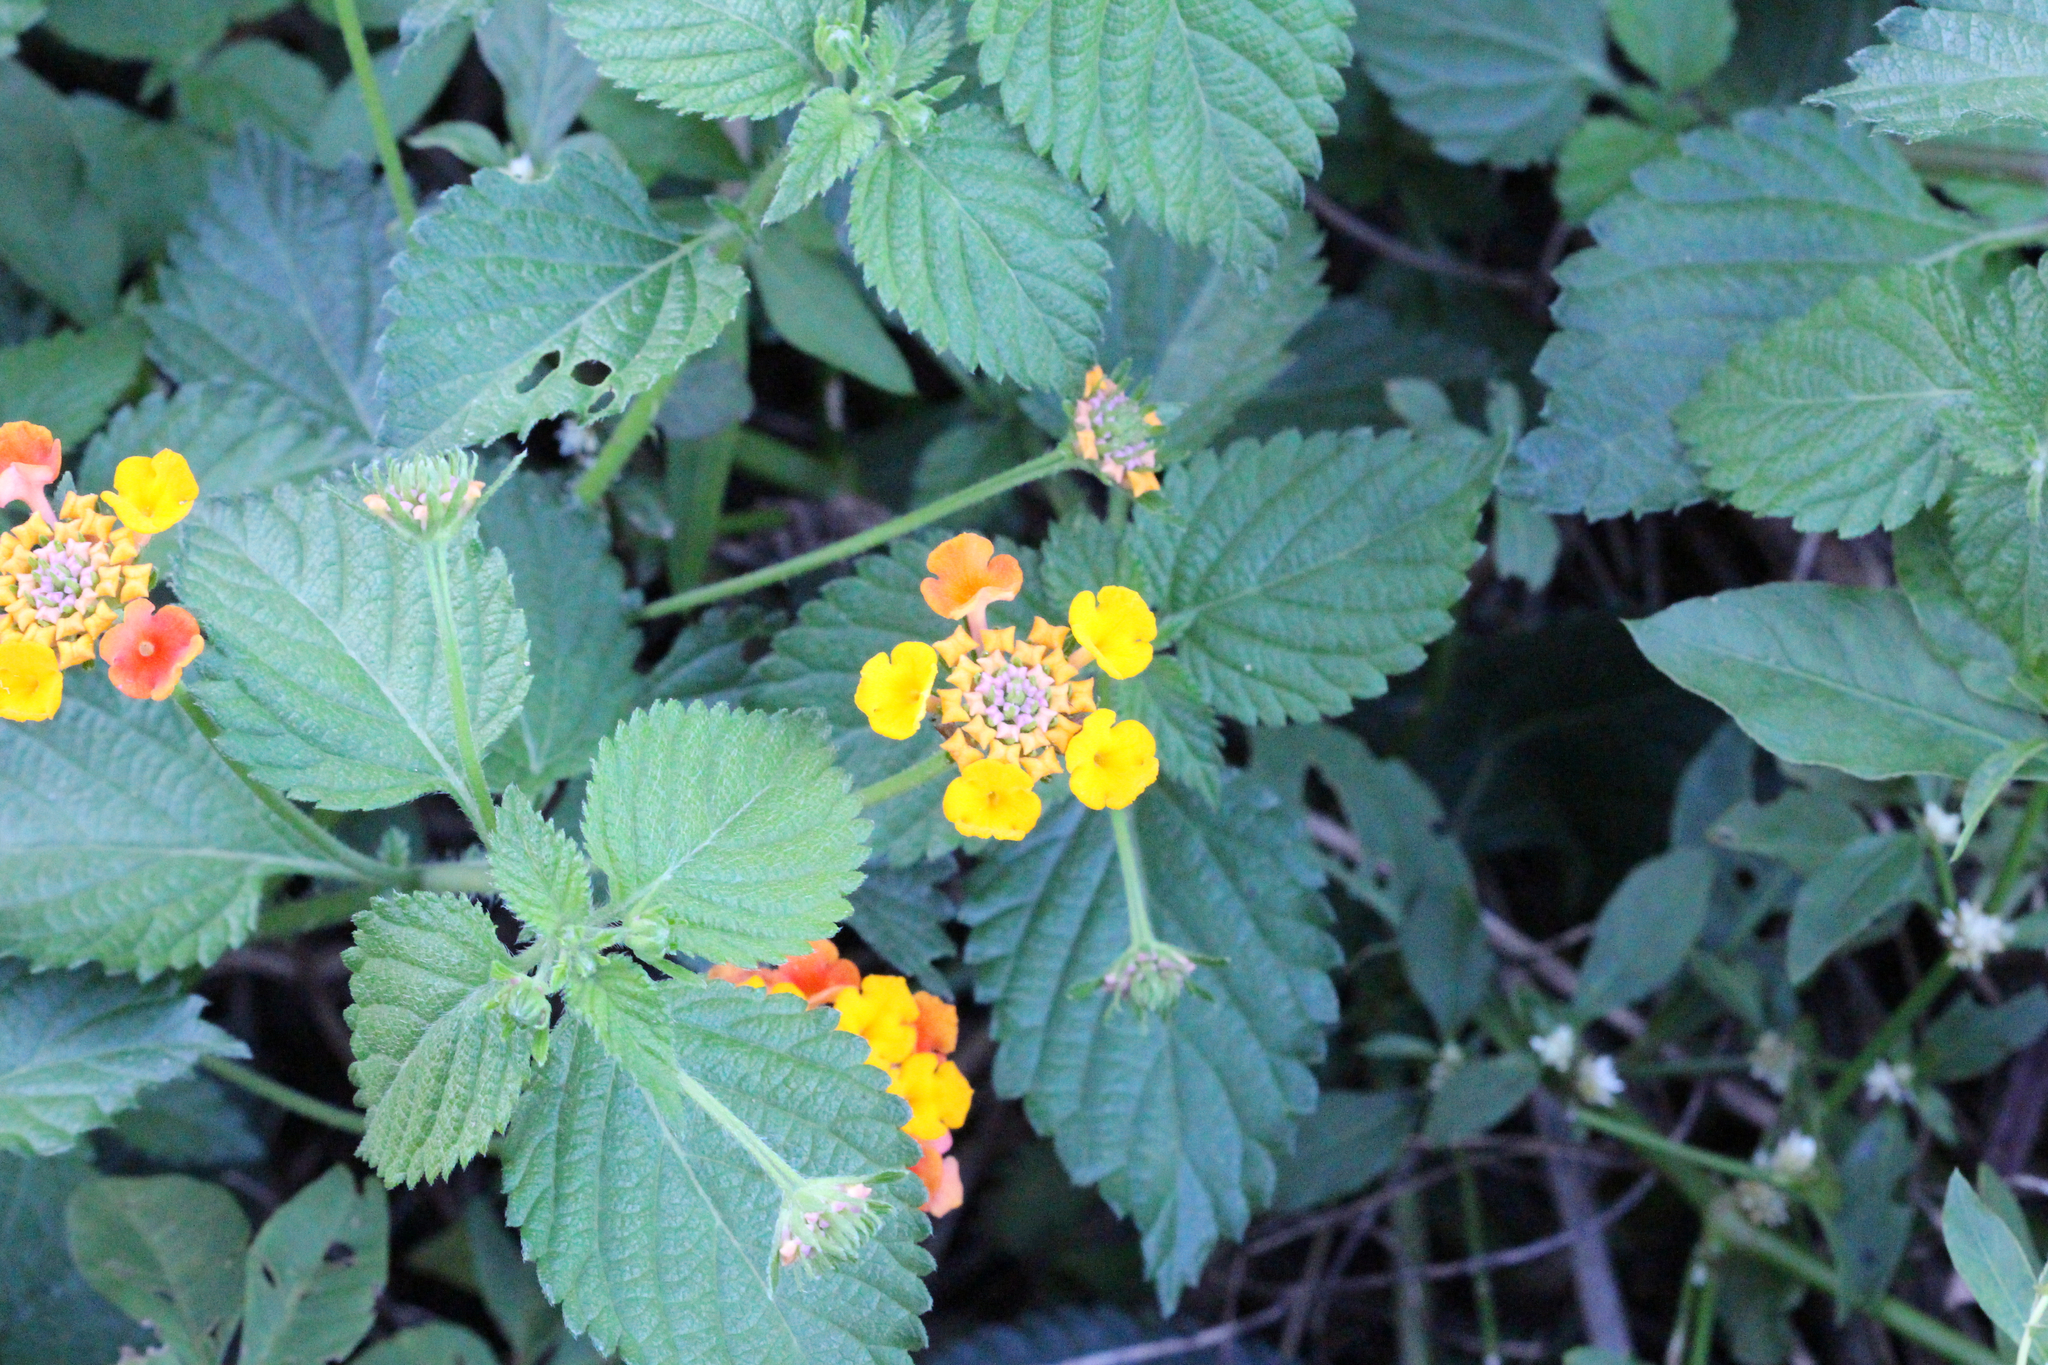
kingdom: Plantae
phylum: Tracheophyta
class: Magnoliopsida
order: Lamiales
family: Verbenaceae
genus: Lantana
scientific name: Lantana camara
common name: Lantana
